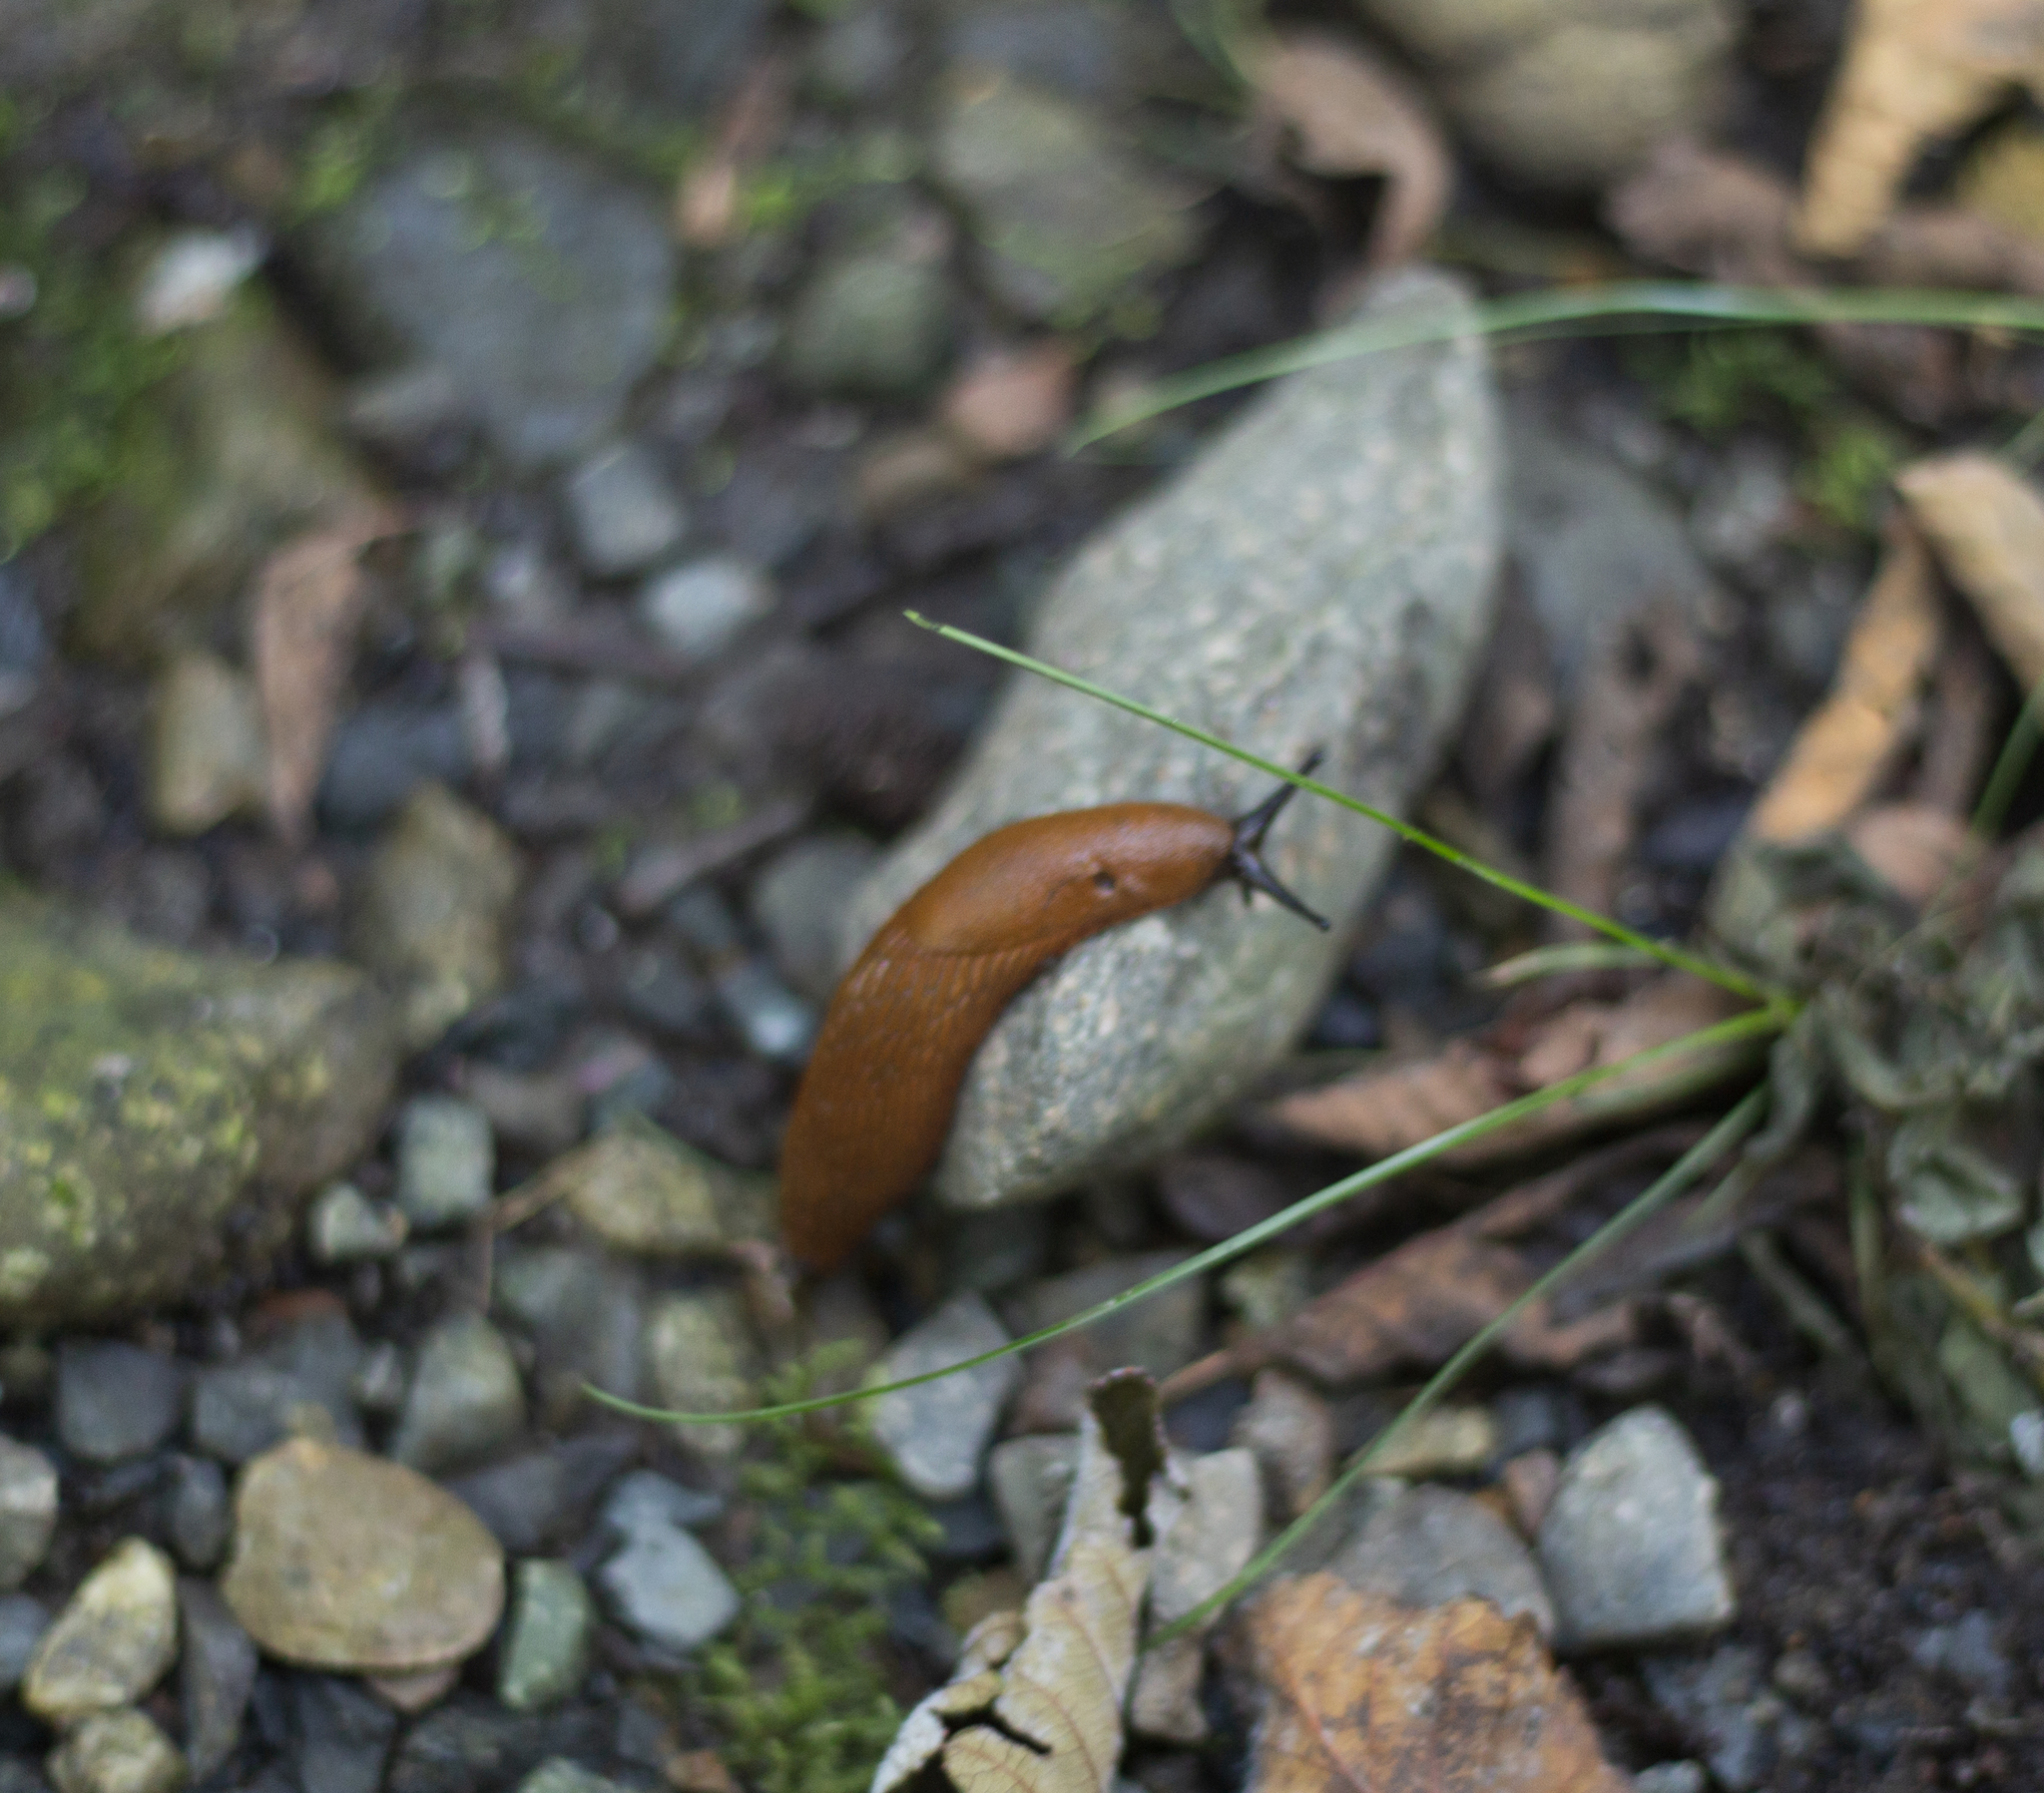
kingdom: Animalia
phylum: Mollusca
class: Gastropoda
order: Stylommatophora
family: Arionidae
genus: Arion
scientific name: Arion
